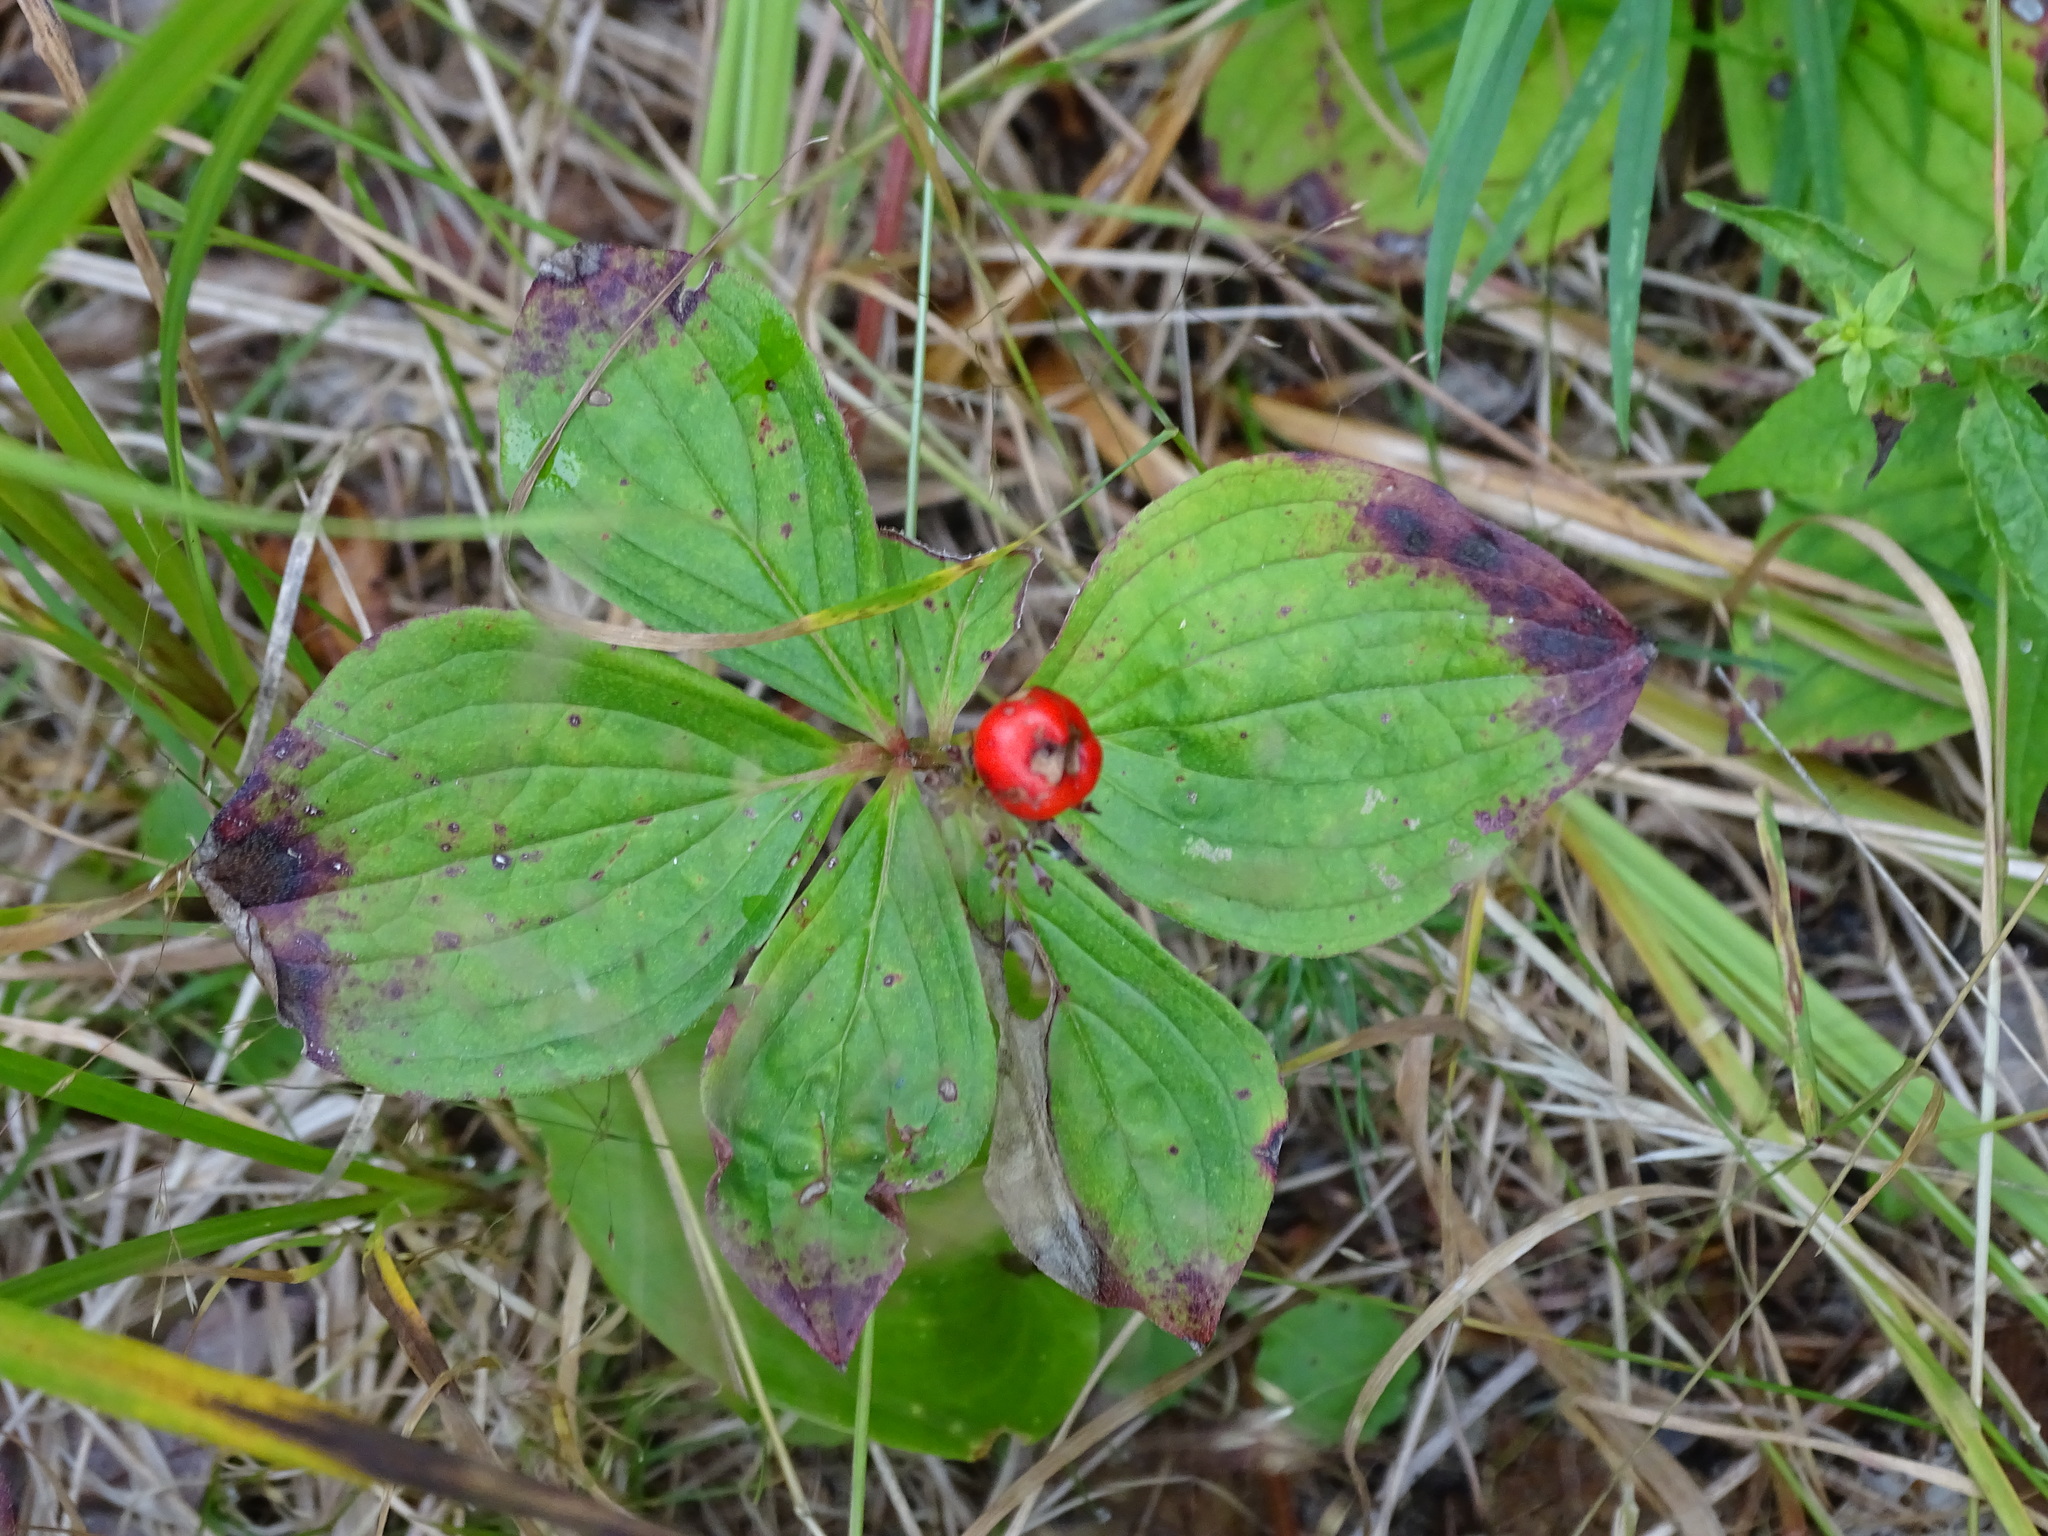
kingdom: Plantae
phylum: Tracheophyta
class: Magnoliopsida
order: Cornales
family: Cornaceae
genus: Cornus
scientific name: Cornus canadensis
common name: Creeping dogwood
